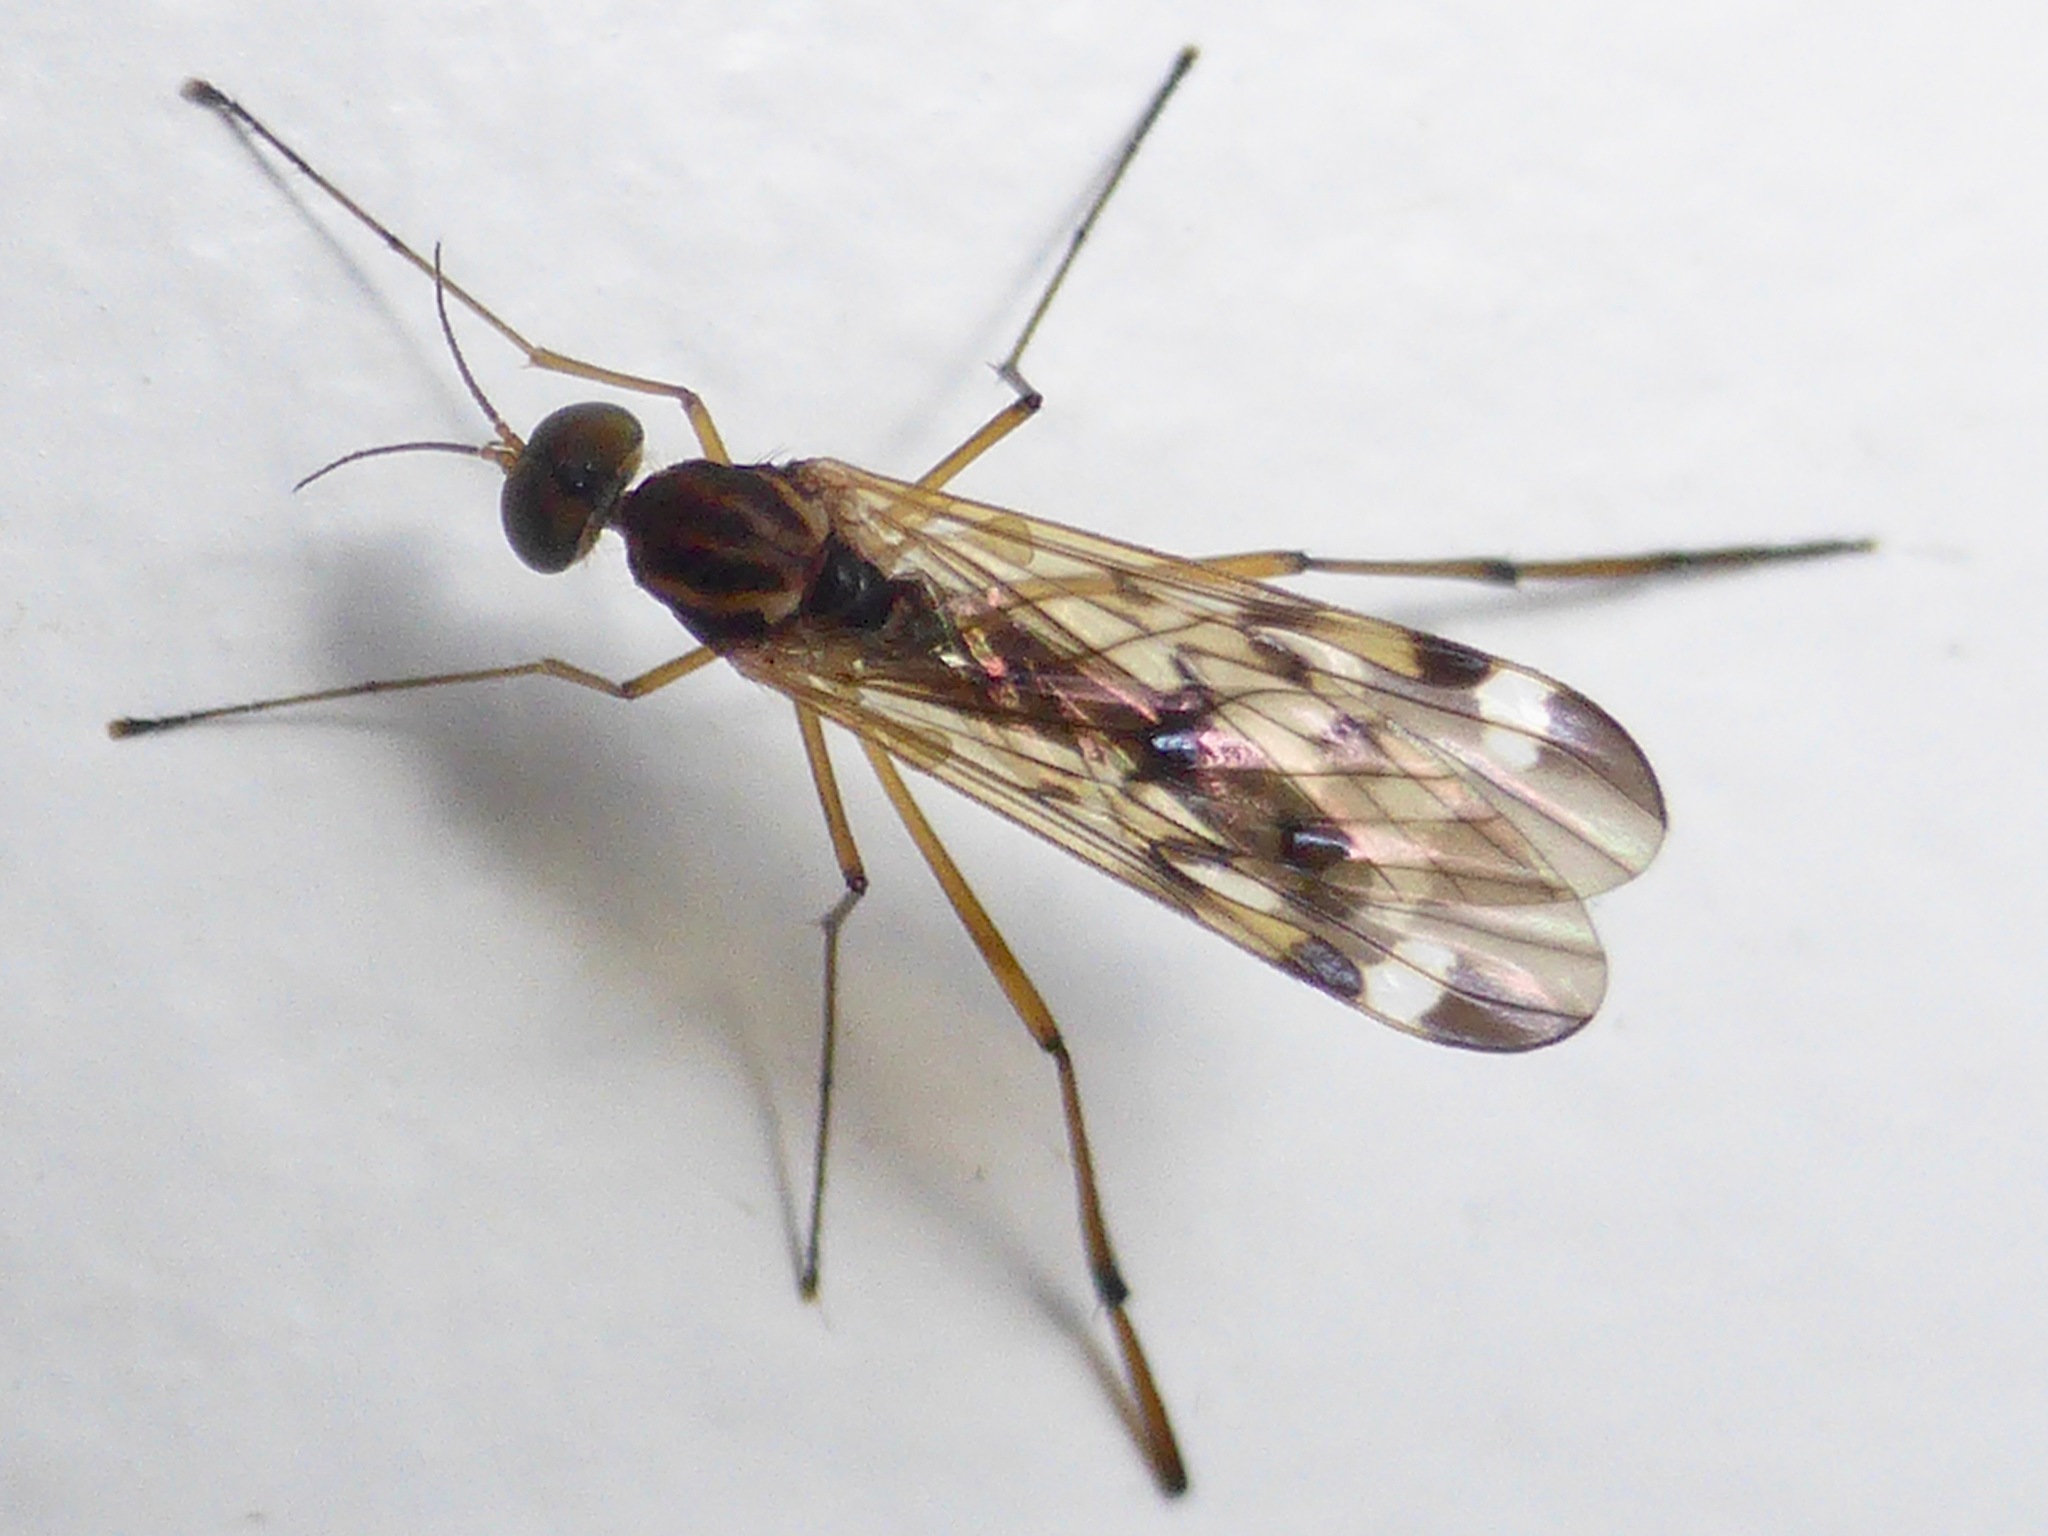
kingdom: Animalia
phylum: Arthropoda
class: Insecta
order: Diptera
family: Anisopodidae
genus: Sylvicola
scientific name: Sylvicola notatus
